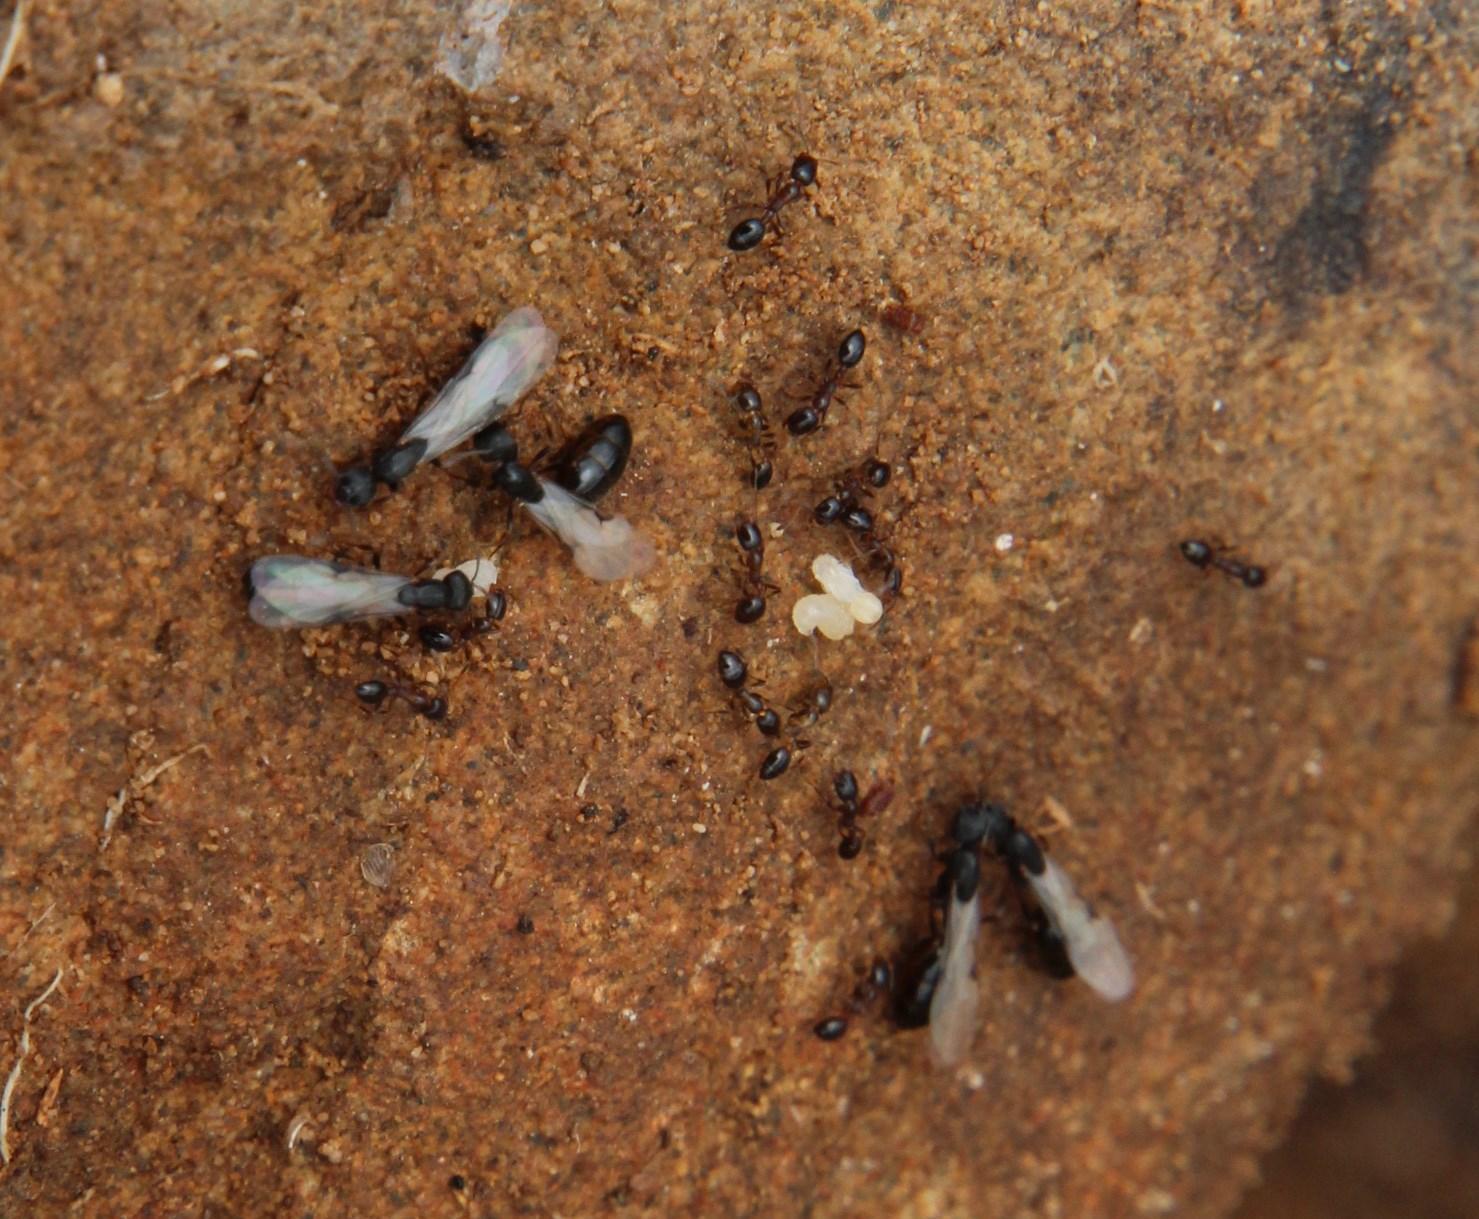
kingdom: Animalia
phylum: Arthropoda
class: Insecta
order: Hymenoptera
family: Formicidae
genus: Monomorium
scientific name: Monomorium fridae
